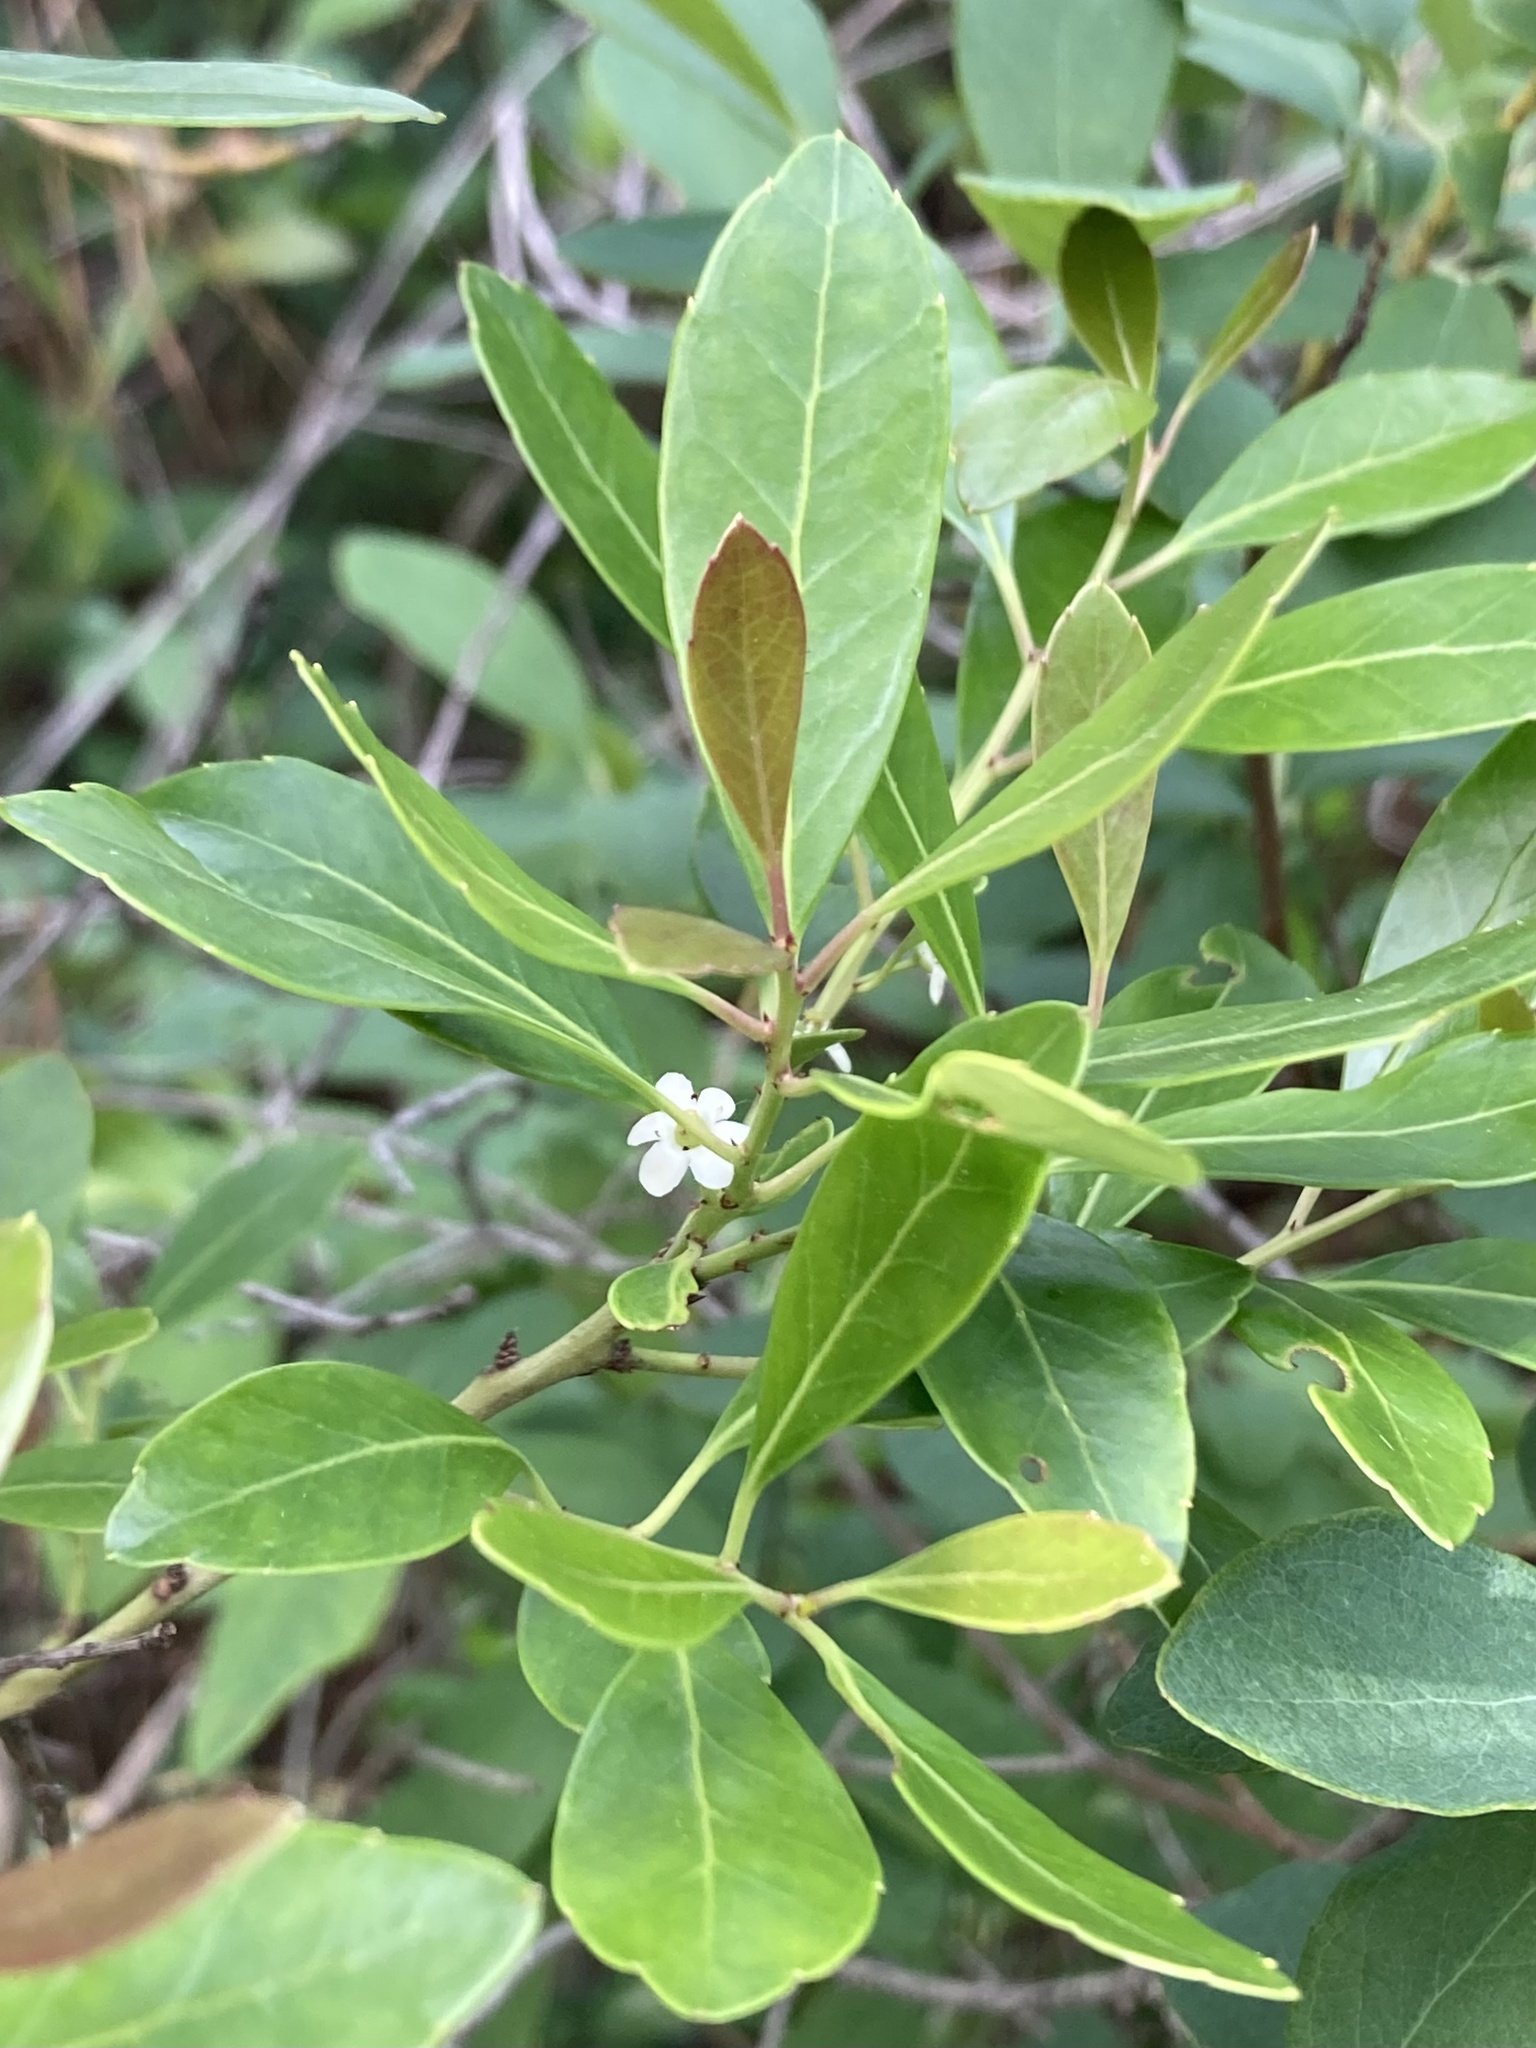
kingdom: Plantae
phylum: Tracheophyta
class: Magnoliopsida
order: Aquifoliales
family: Aquifoliaceae
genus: Ilex
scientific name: Ilex glabra
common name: Bitter gallberry
